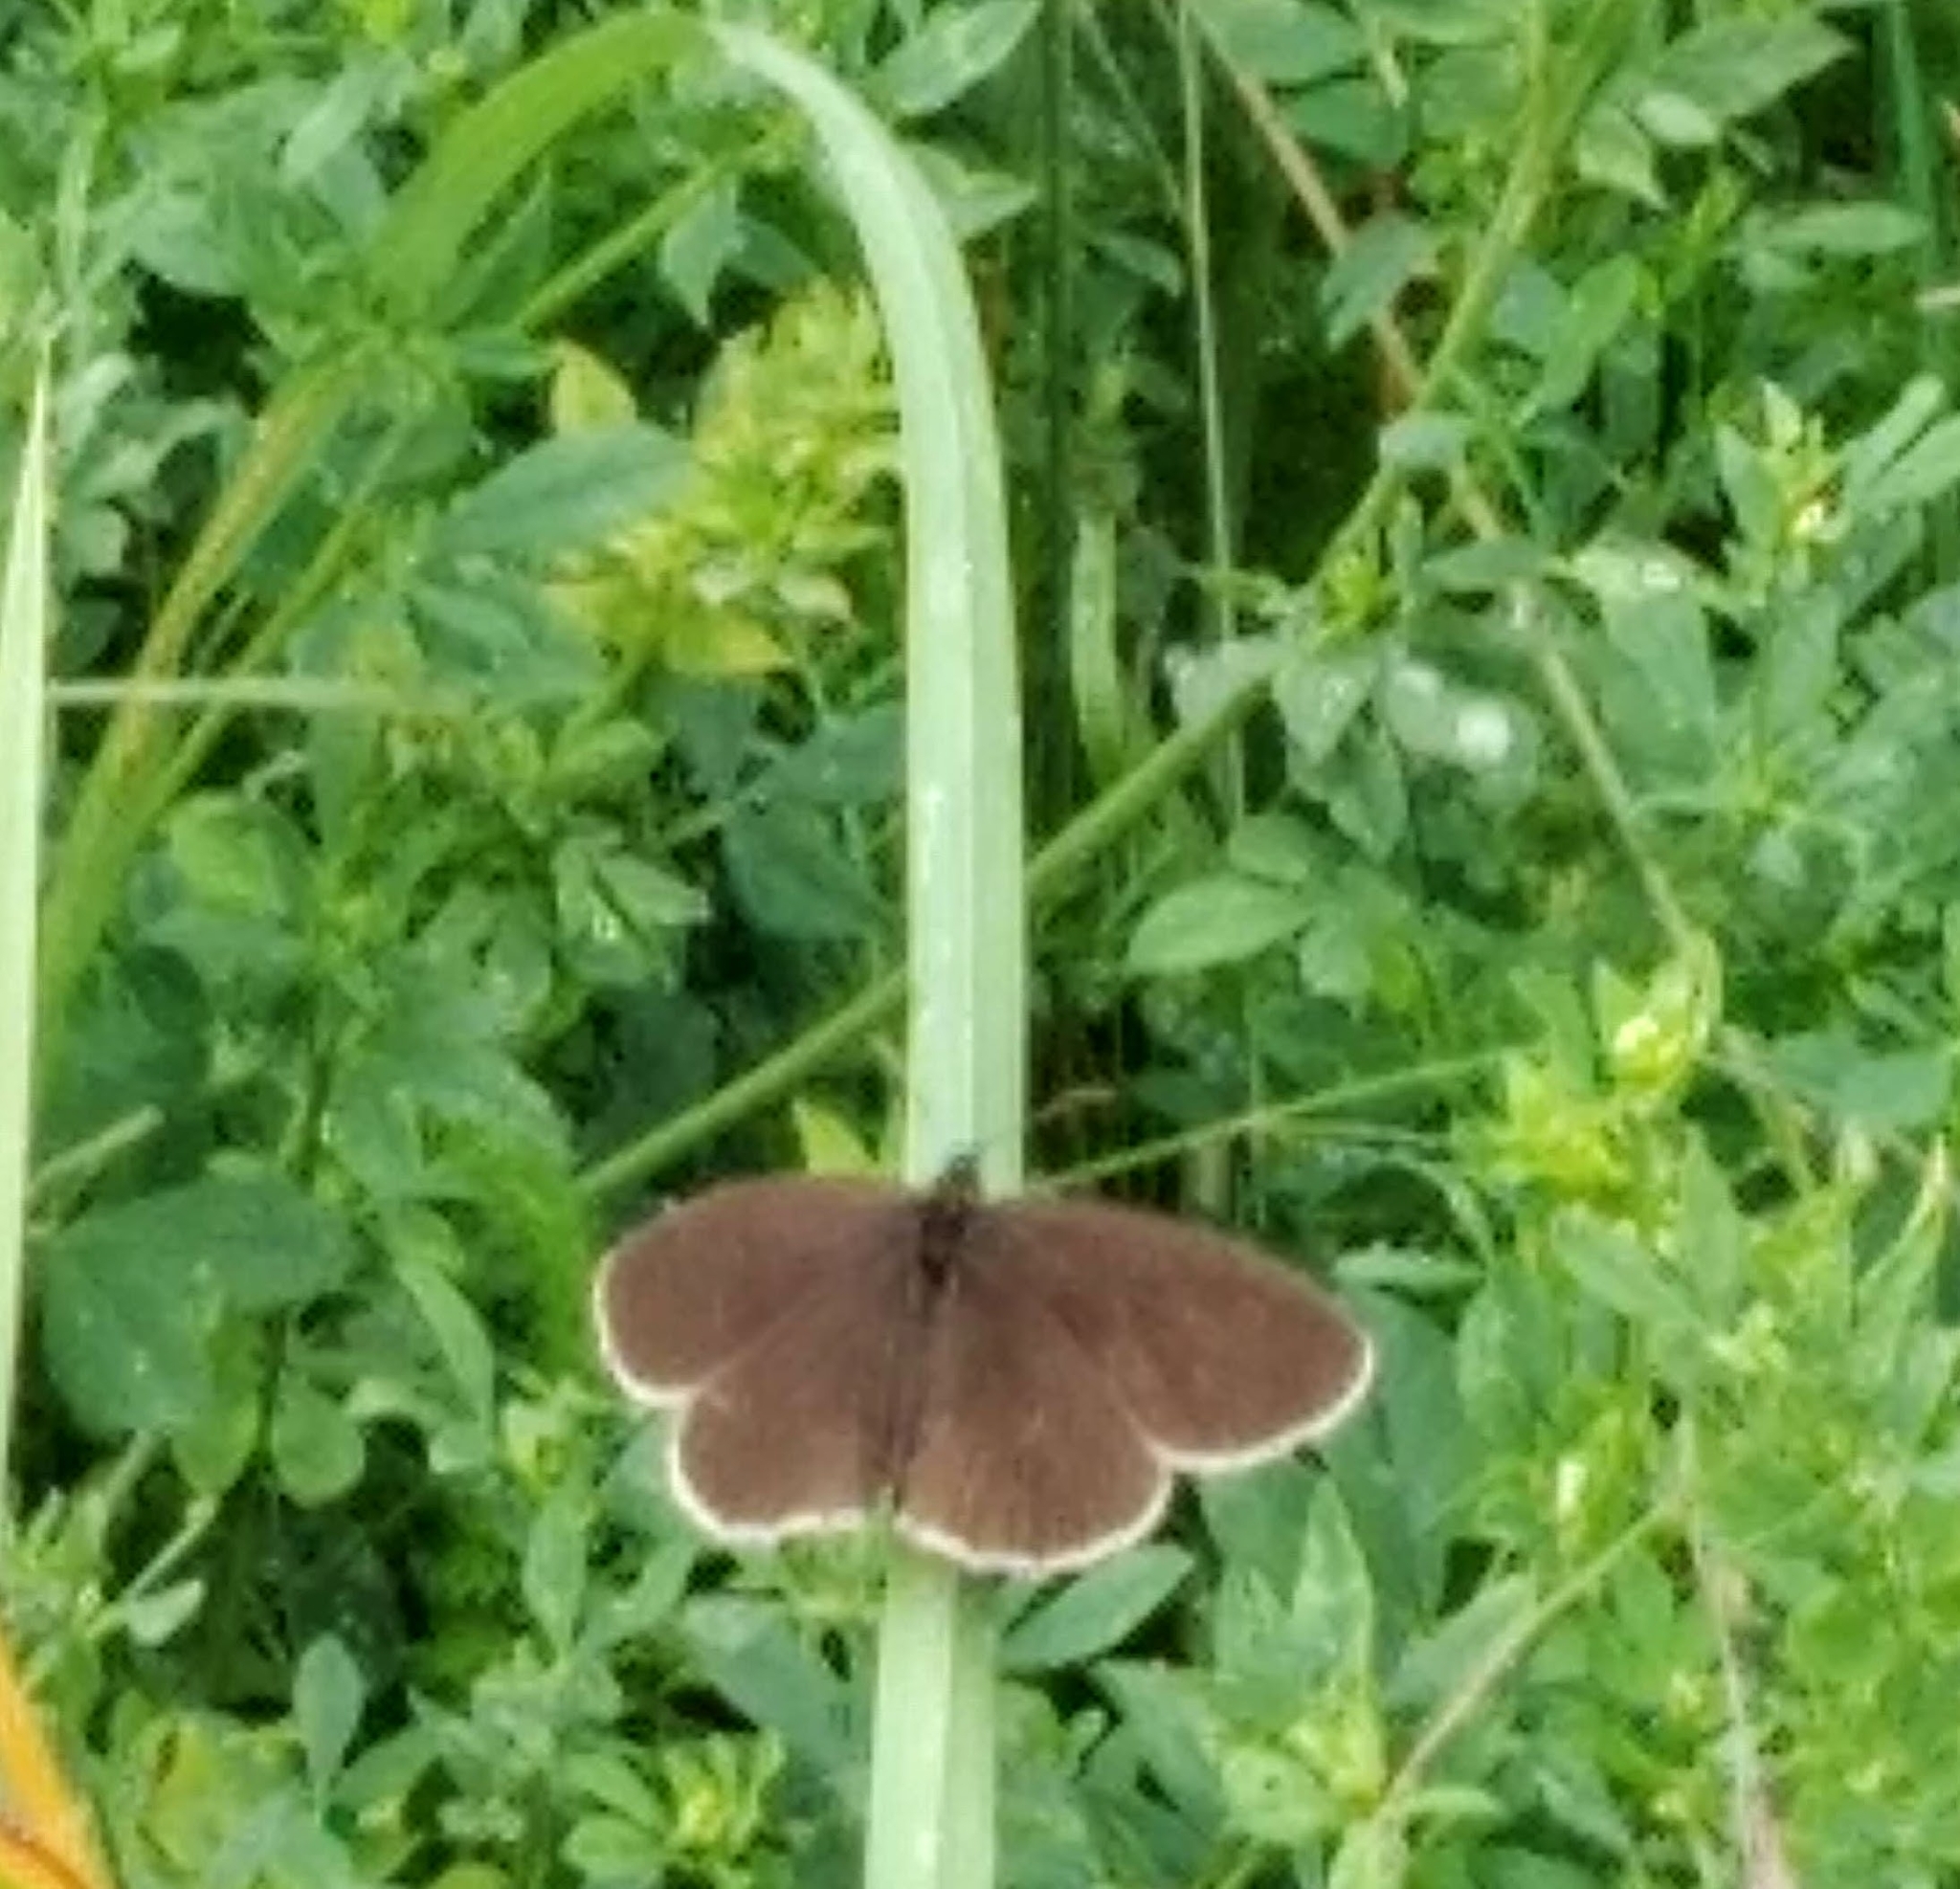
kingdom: Animalia
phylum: Arthropoda
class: Insecta
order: Lepidoptera
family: Nymphalidae
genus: Aphantopus
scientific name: Aphantopus hyperantus
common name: Ringlet
